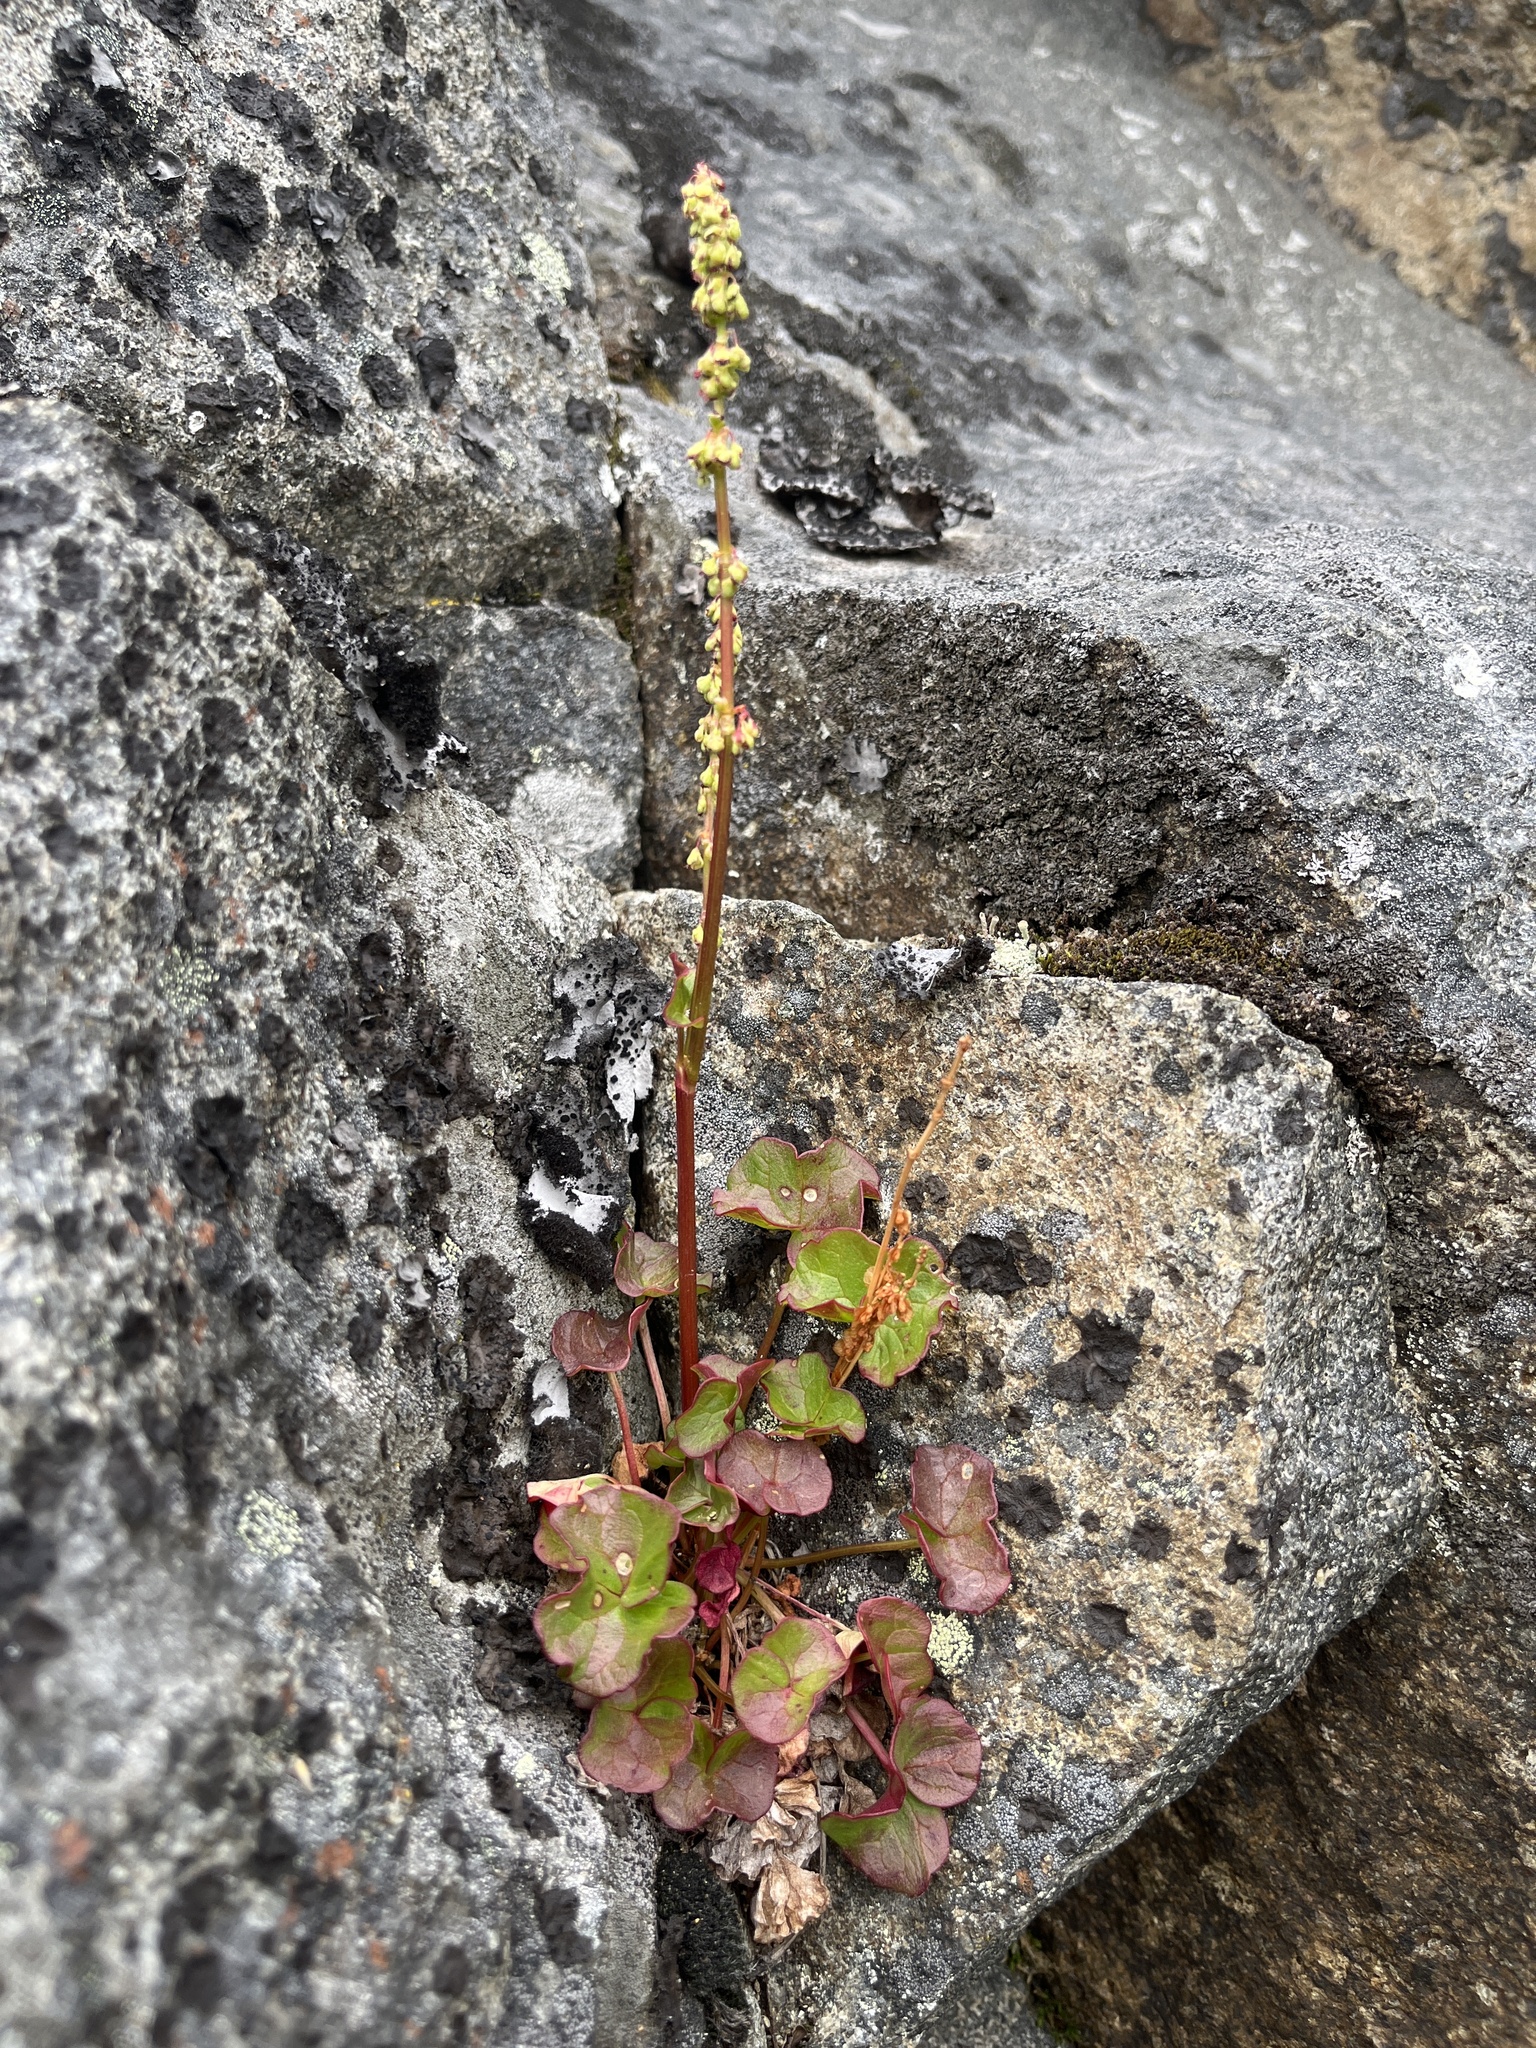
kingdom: Plantae
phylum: Tracheophyta
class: Magnoliopsida
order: Caryophyllales
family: Polygonaceae
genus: Oxyria
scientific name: Oxyria digyna
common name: Alpine mountain-sorrel
